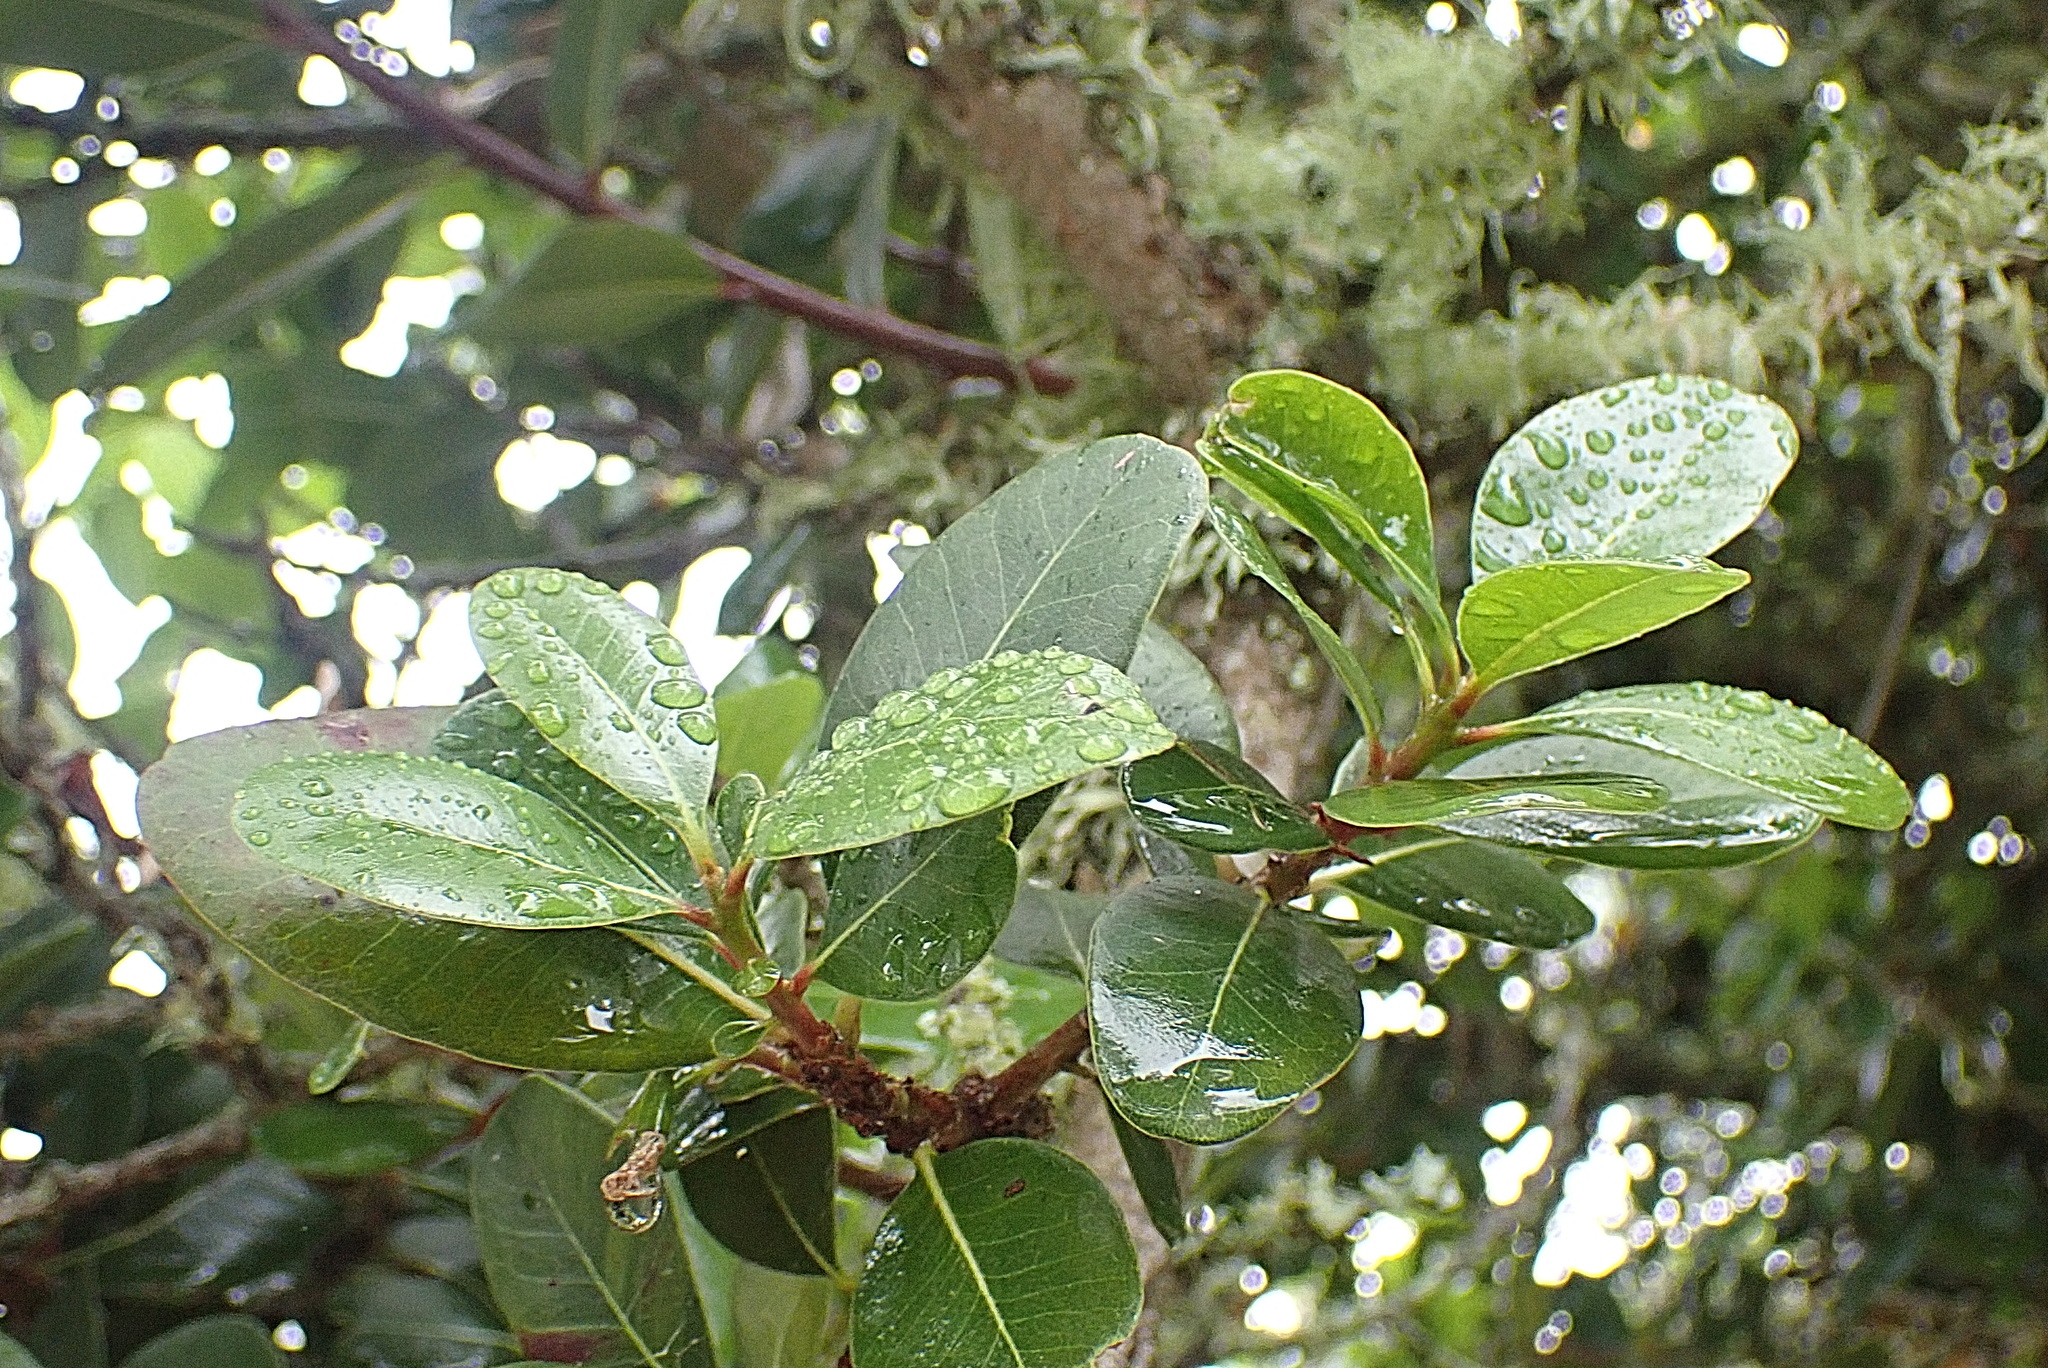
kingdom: Plantae
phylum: Tracheophyta
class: Magnoliopsida
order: Ericales
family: Sapotaceae
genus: Sideroxylon
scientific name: Sideroxylon inerme
